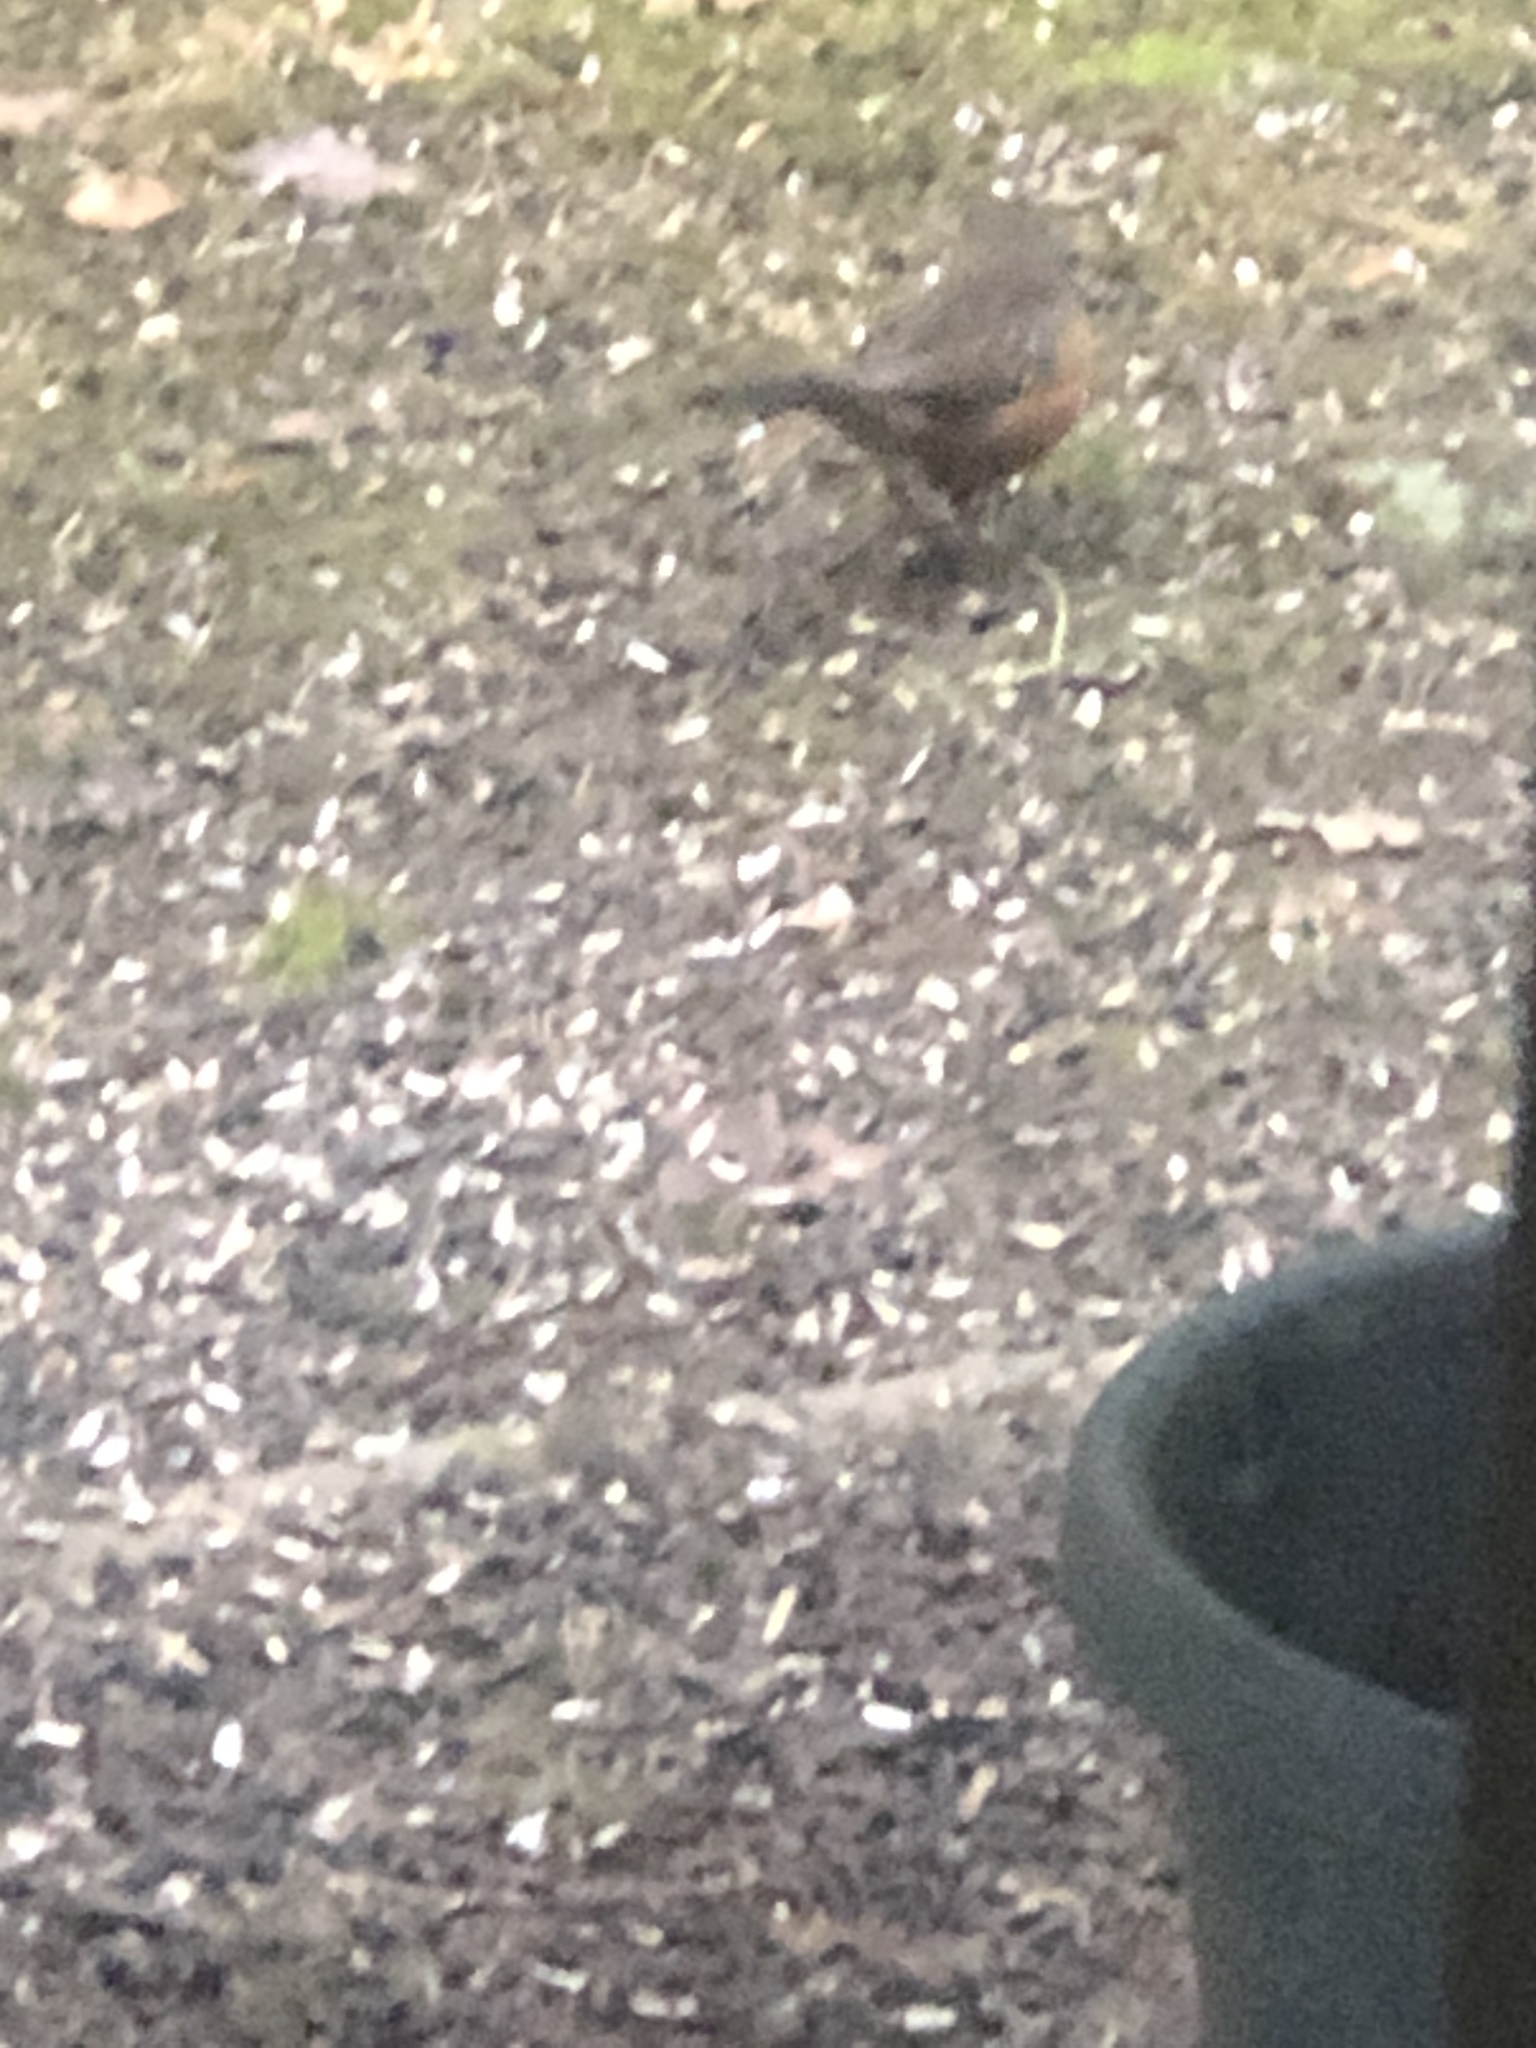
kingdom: Animalia
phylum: Chordata
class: Aves
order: Passeriformes
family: Passerellidae
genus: Pipilo
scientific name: Pipilo maculatus
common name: Spotted towhee
